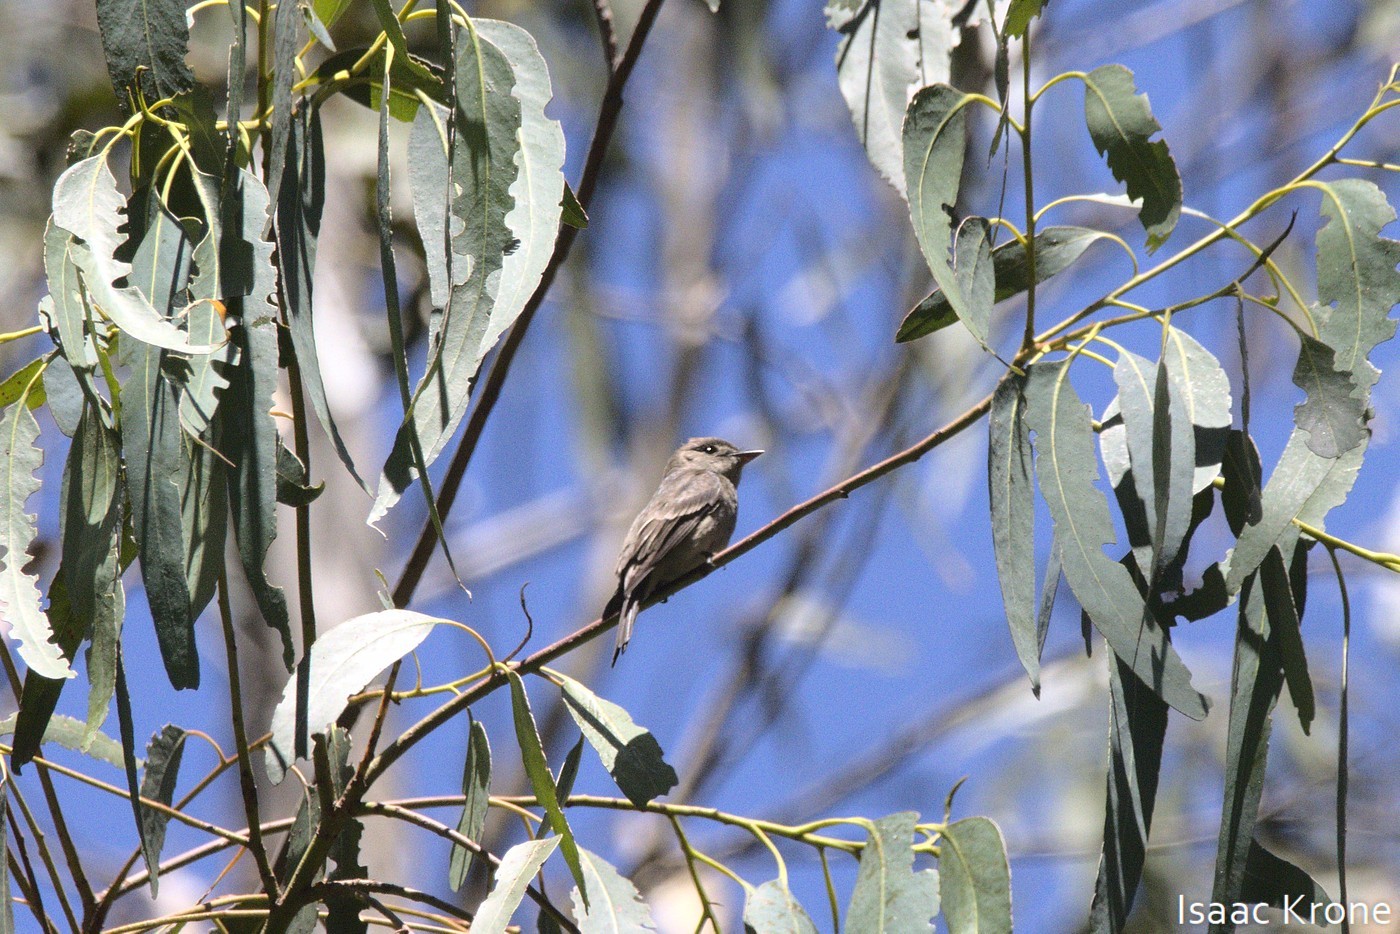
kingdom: Animalia
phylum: Chordata
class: Aves
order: Passeriformes
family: Tyrannidae
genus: Contopus
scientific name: Contopus sordidulus
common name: Western wood-pewee
